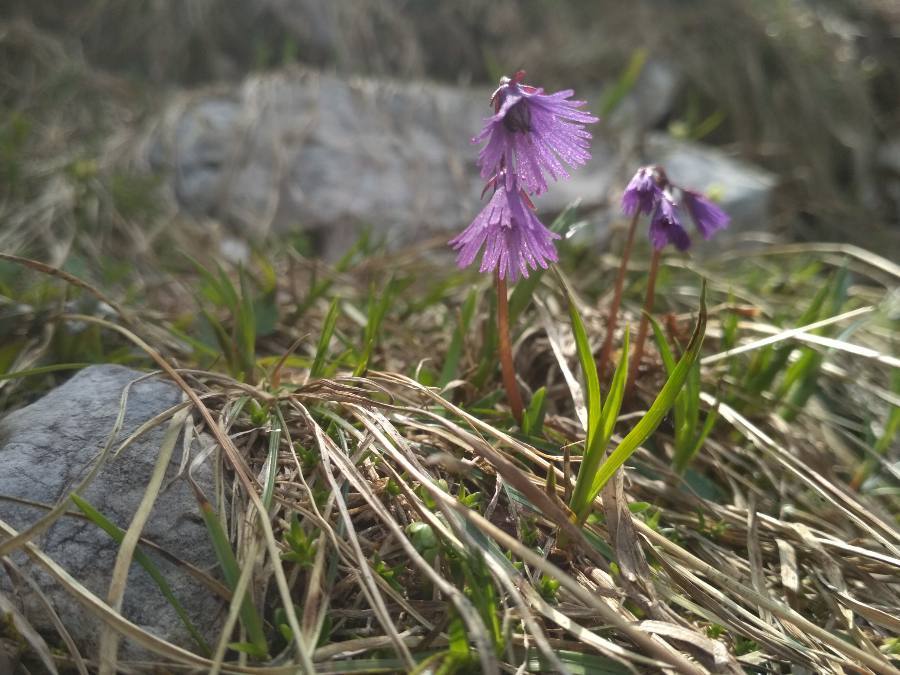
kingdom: Plantae
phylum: Tracheophyta
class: Magnoliopsida
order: Ericales
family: Primulaceae
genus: Soldanella
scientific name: Soldanella alpina
